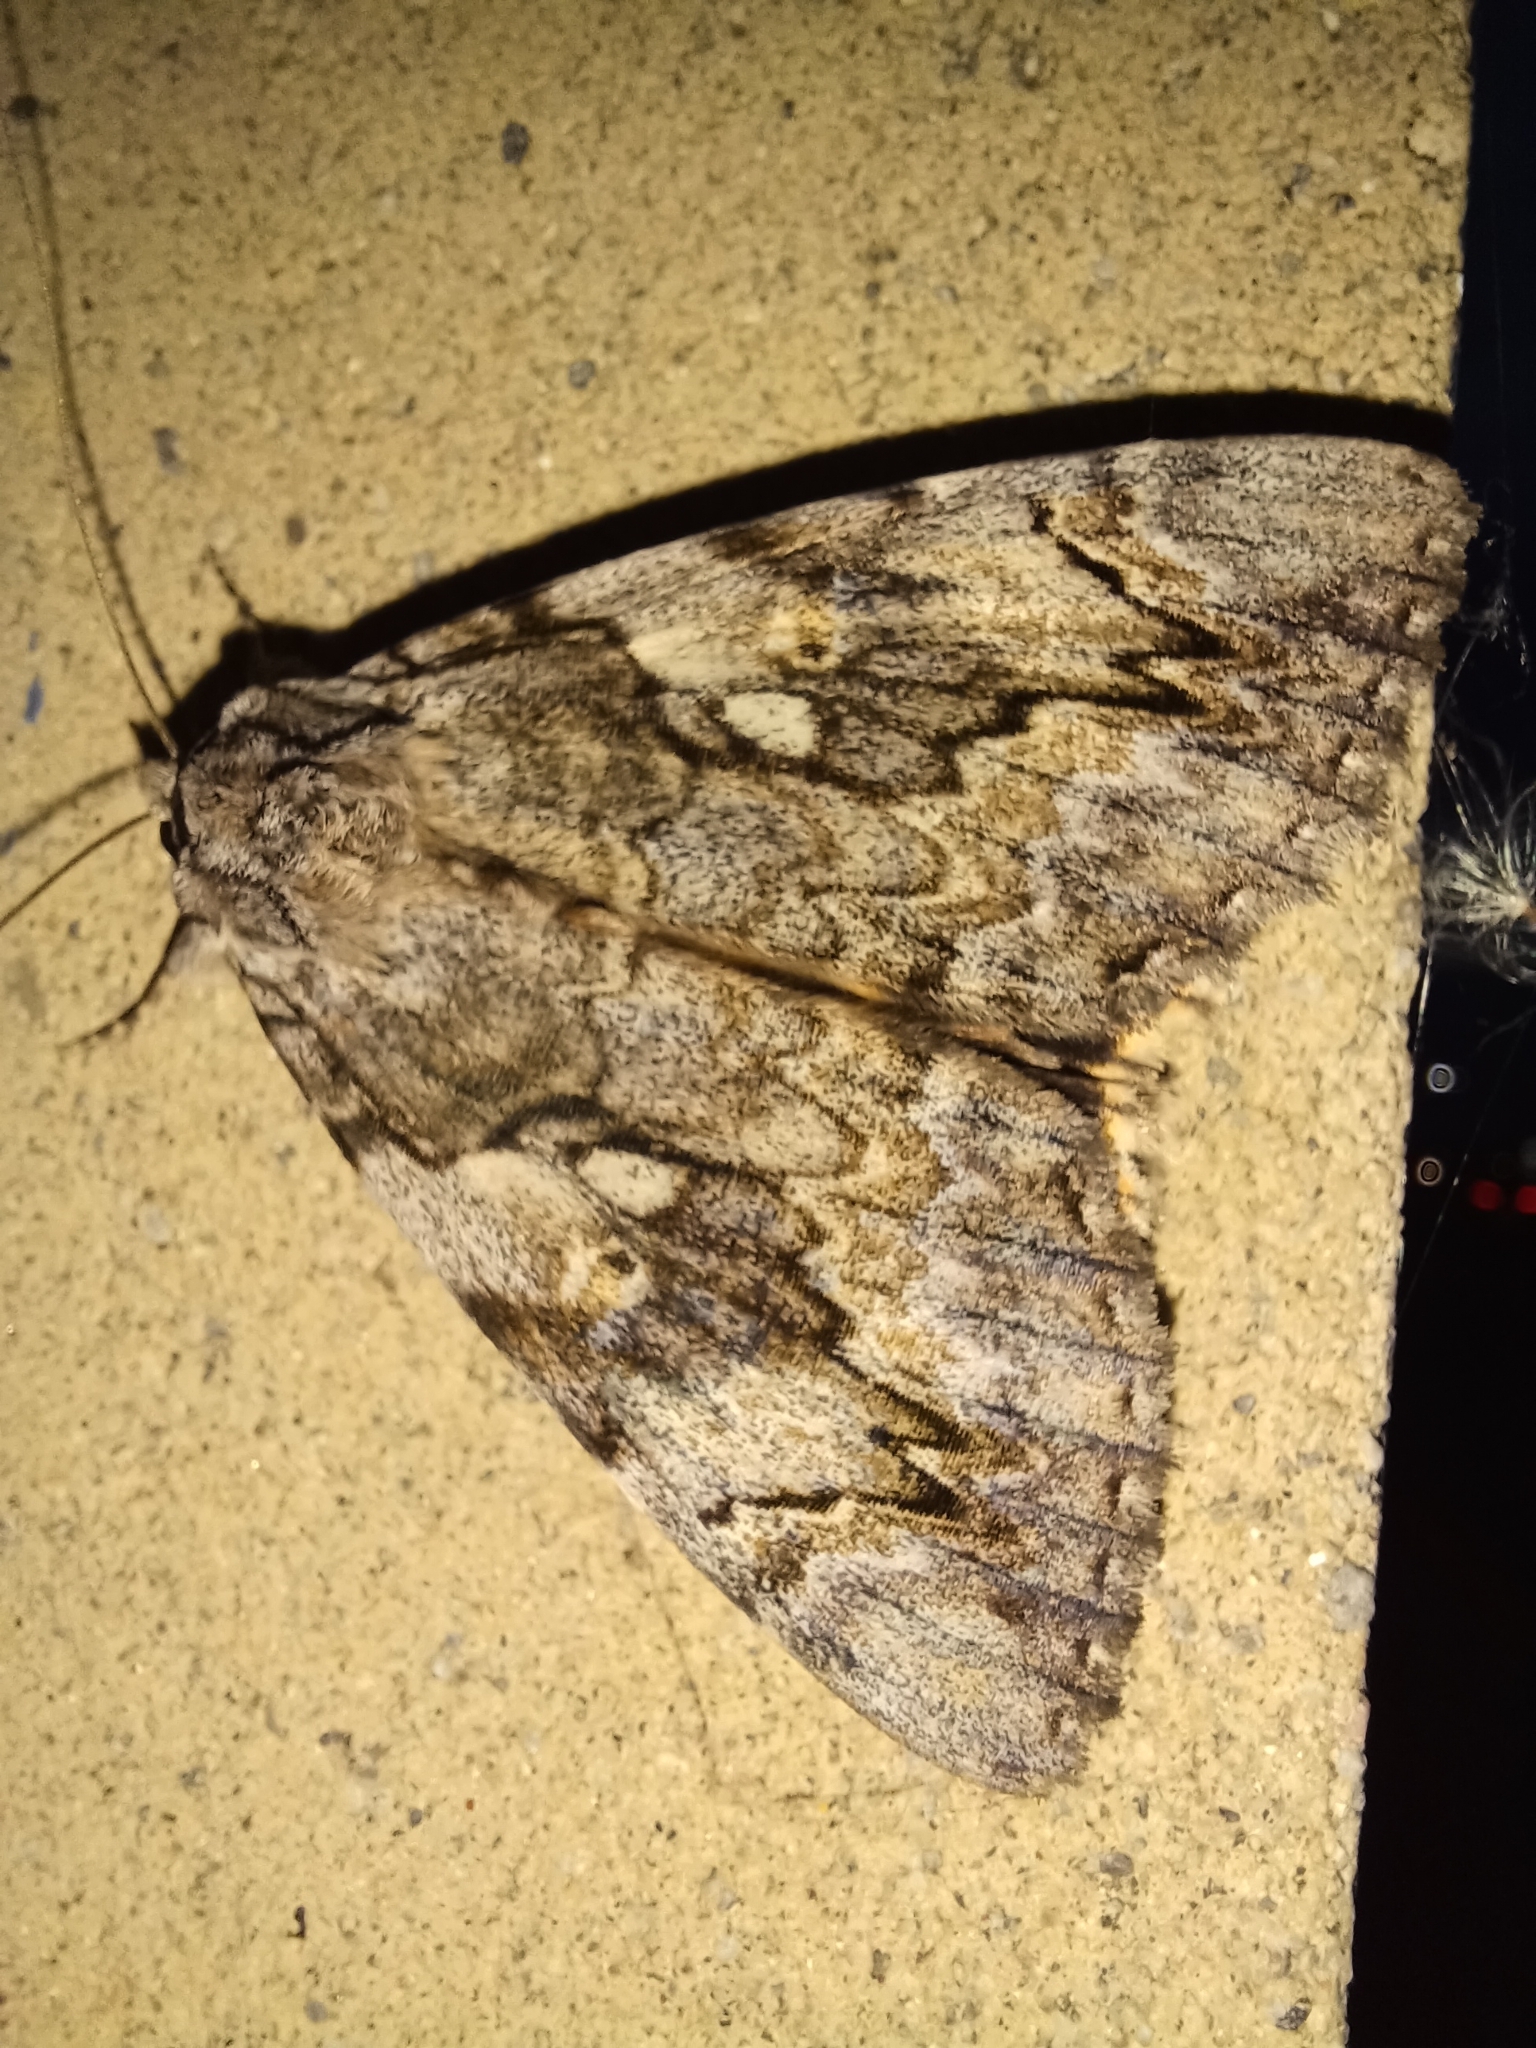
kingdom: Animalia
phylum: Arthropoda
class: Insecta
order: Lepidoptera
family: Erebidae
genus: Catocala
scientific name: Catocala cerogama
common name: Yellow banded underwing
